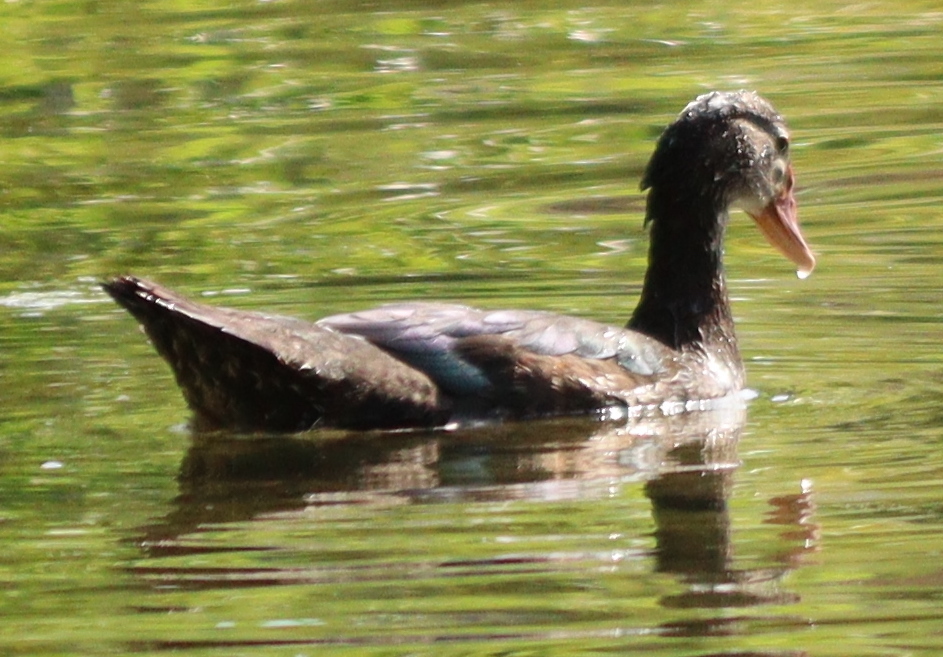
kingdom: Animalia
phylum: Chordata
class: Aves
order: Anseriformes
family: Anatidae
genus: Cairina
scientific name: Cairina moschata
